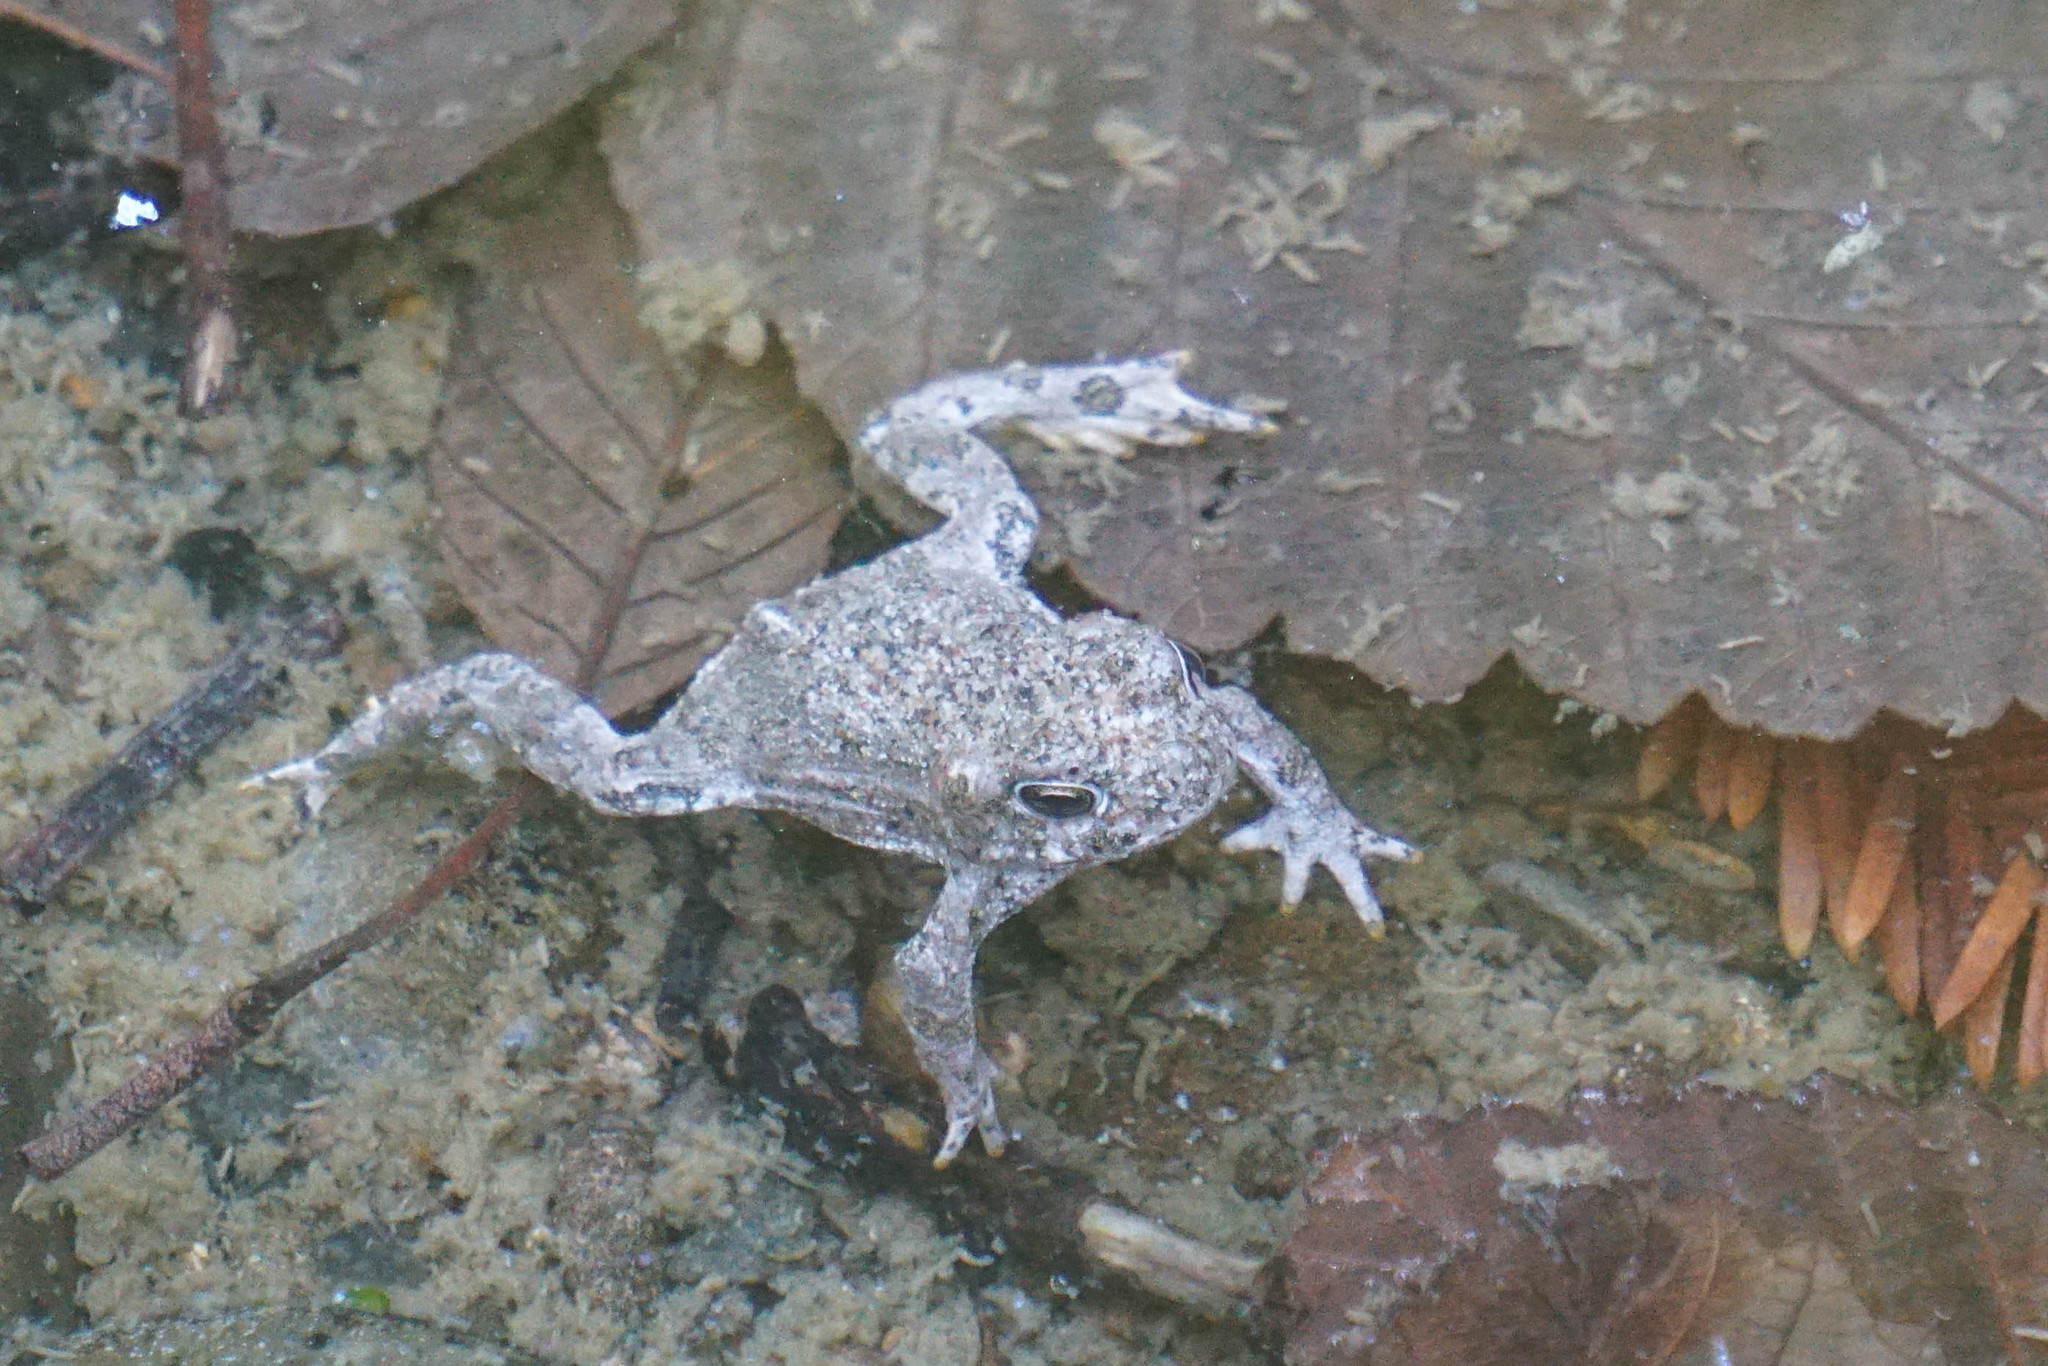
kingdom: Animalia
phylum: Chordata
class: Amphibia
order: Anura
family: Bufonidae
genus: Anaxyrus
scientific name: Anaxyrus boreas
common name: Western toad
